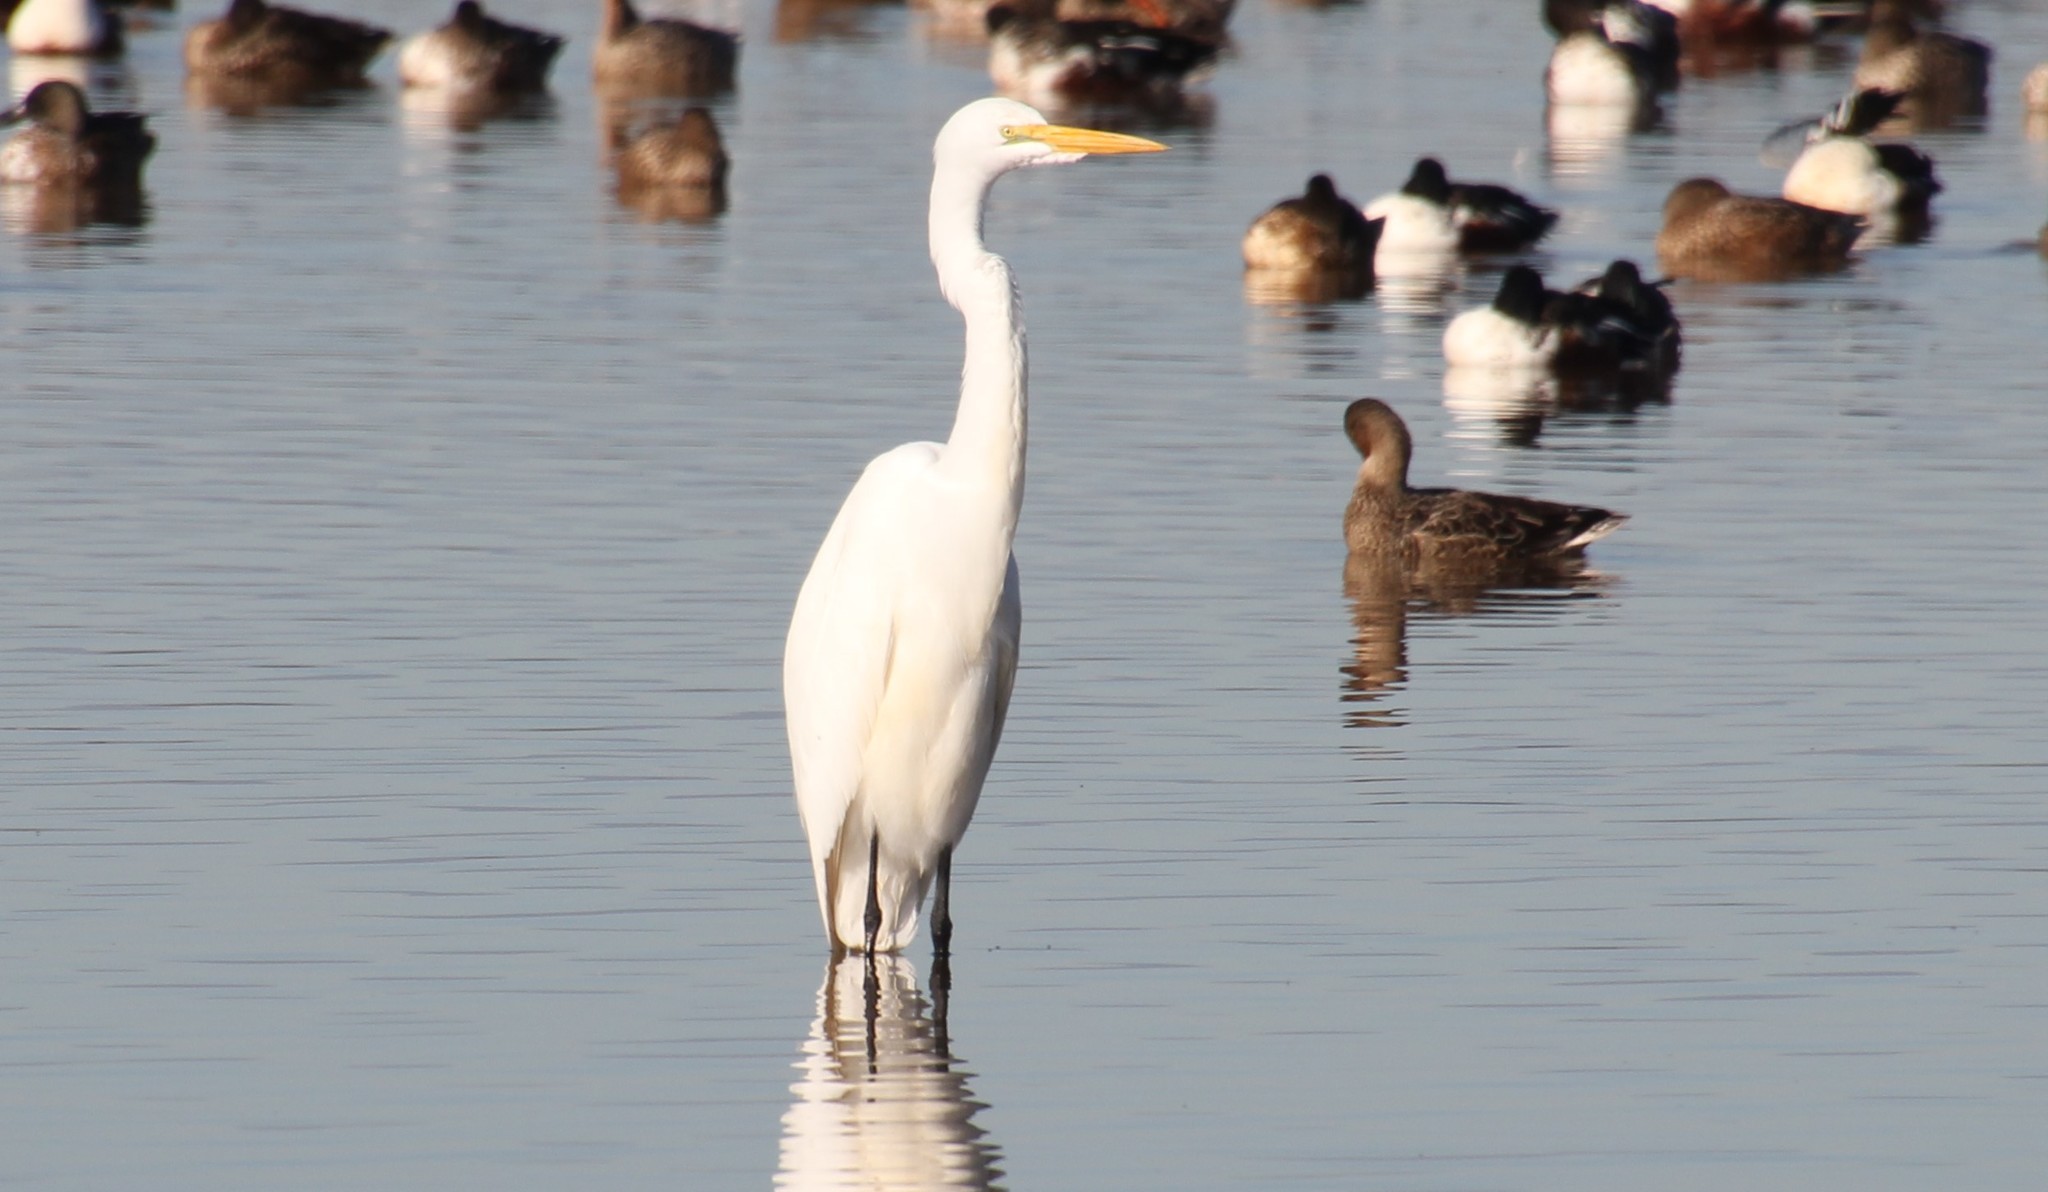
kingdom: Animalia
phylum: Chordata
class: Aves
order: Pelecaniformes
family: Ardeidae
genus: Ardea
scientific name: Ardea alba
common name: Great egret
